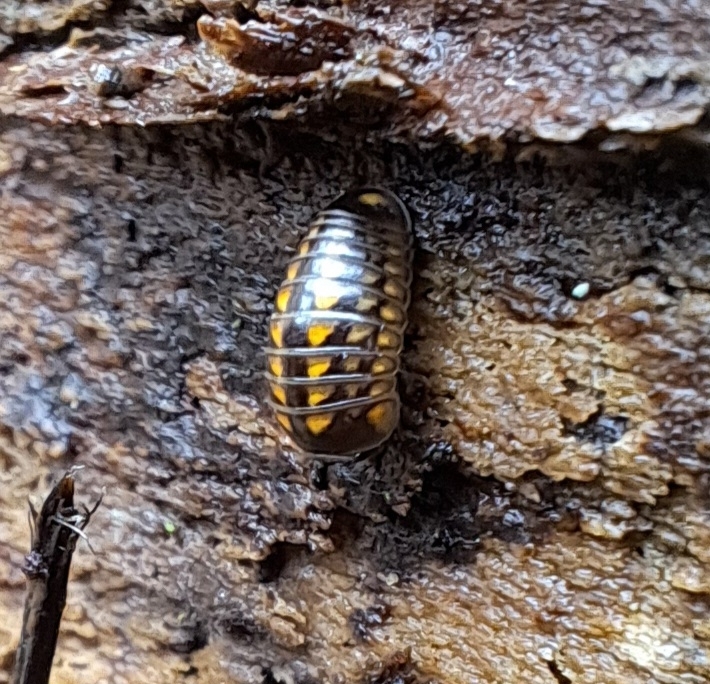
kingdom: Animalia
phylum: Arthropoda
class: Diplopoda
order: Glomerida
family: Glomeridae
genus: Glomeris
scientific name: Glomeris hexasticha
